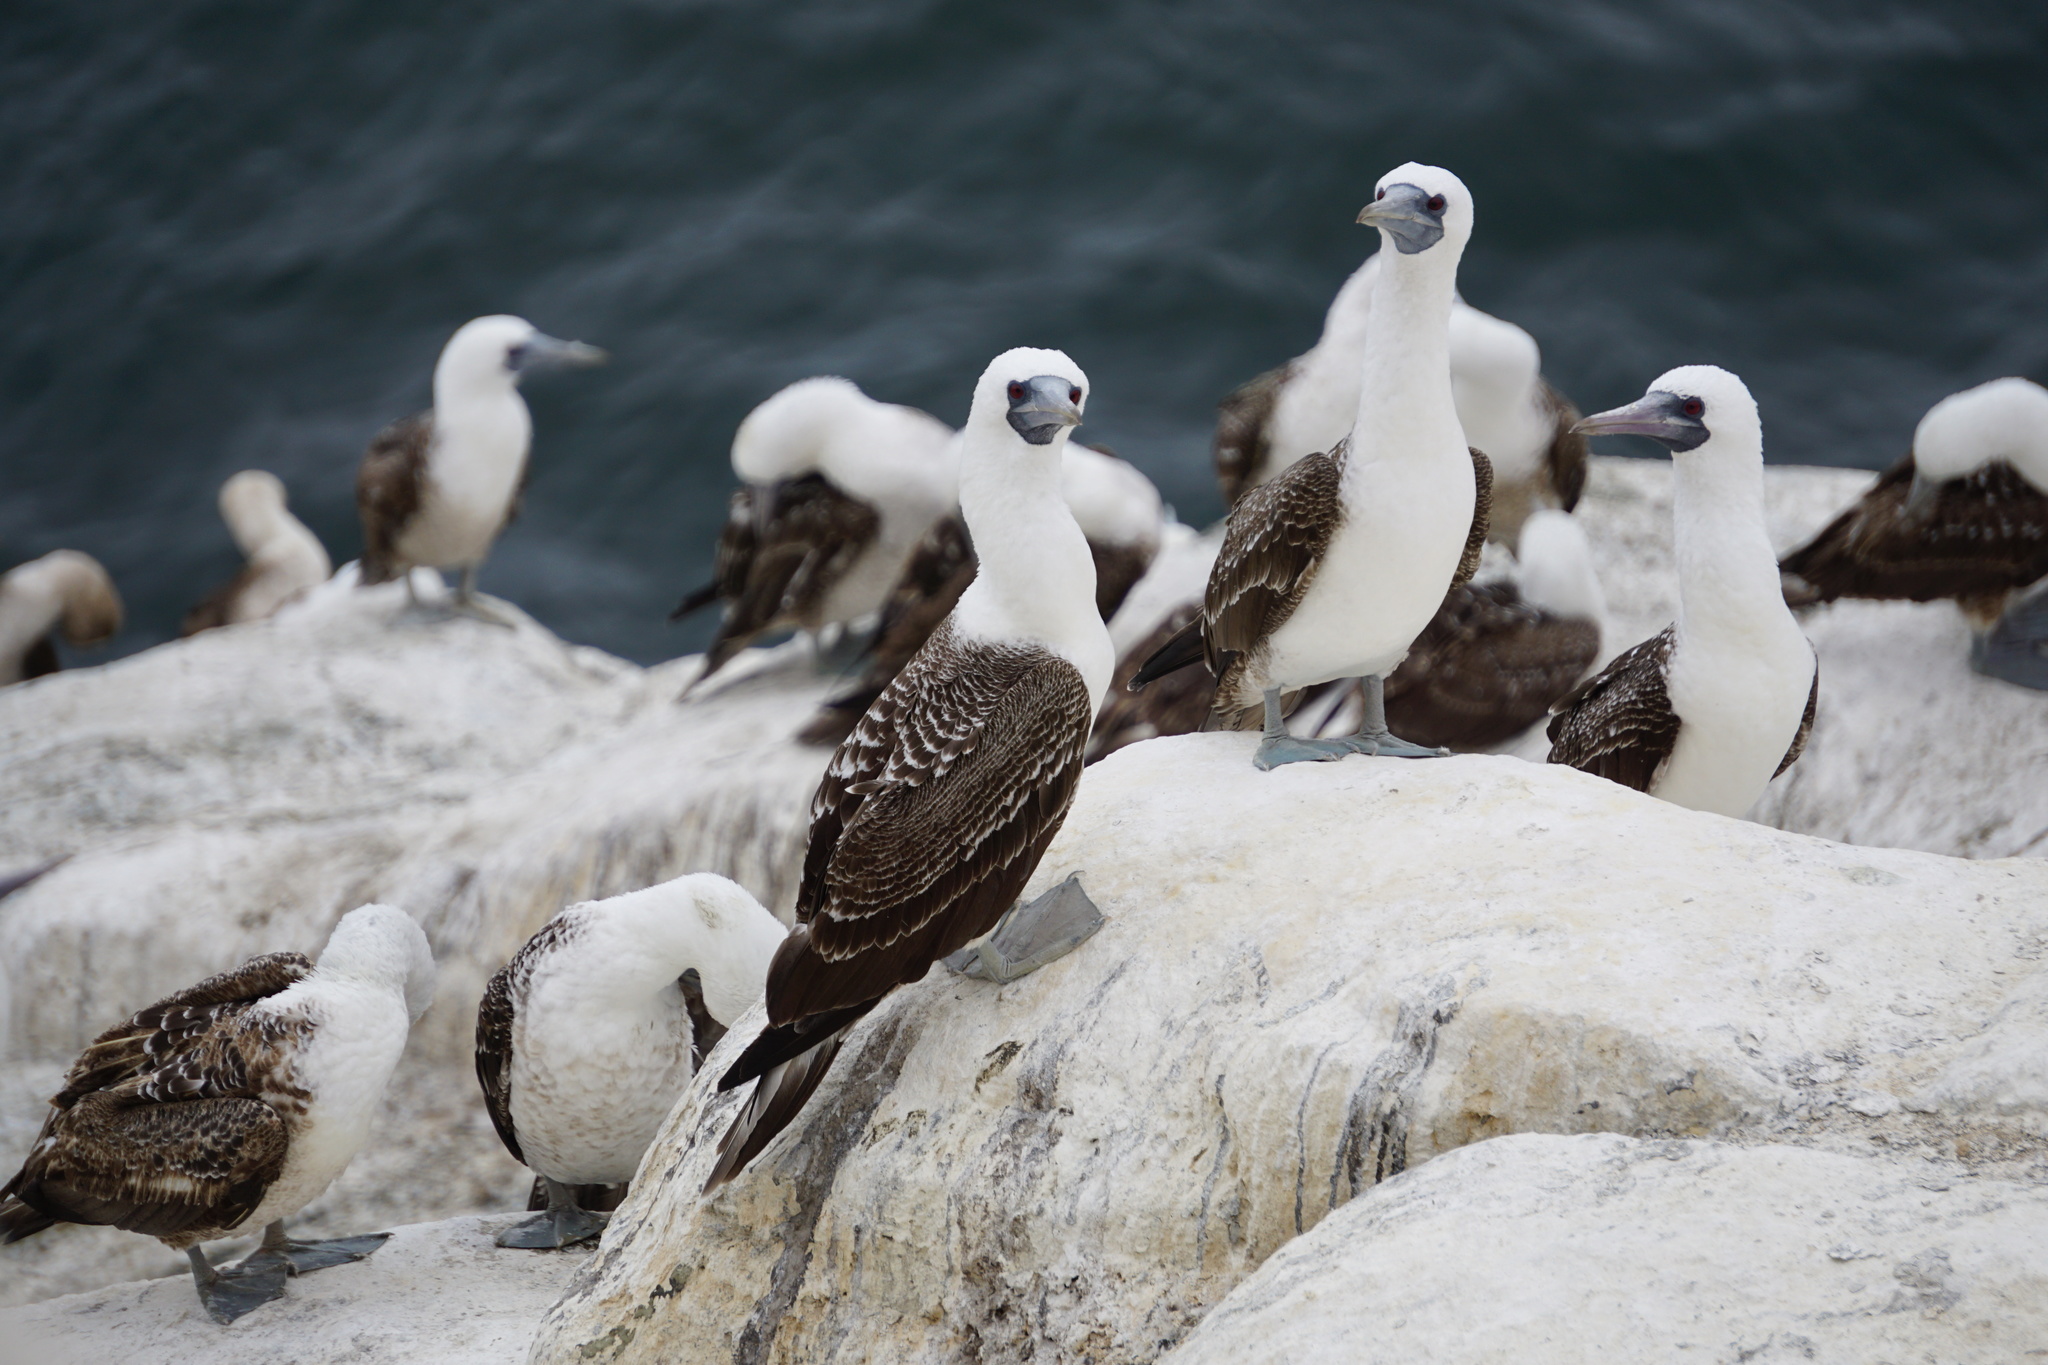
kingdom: Animalia
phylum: Chordata
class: Aves
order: Suliformes
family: Sulidae
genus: Sula
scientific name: Sula variegata
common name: Peruvian booby
